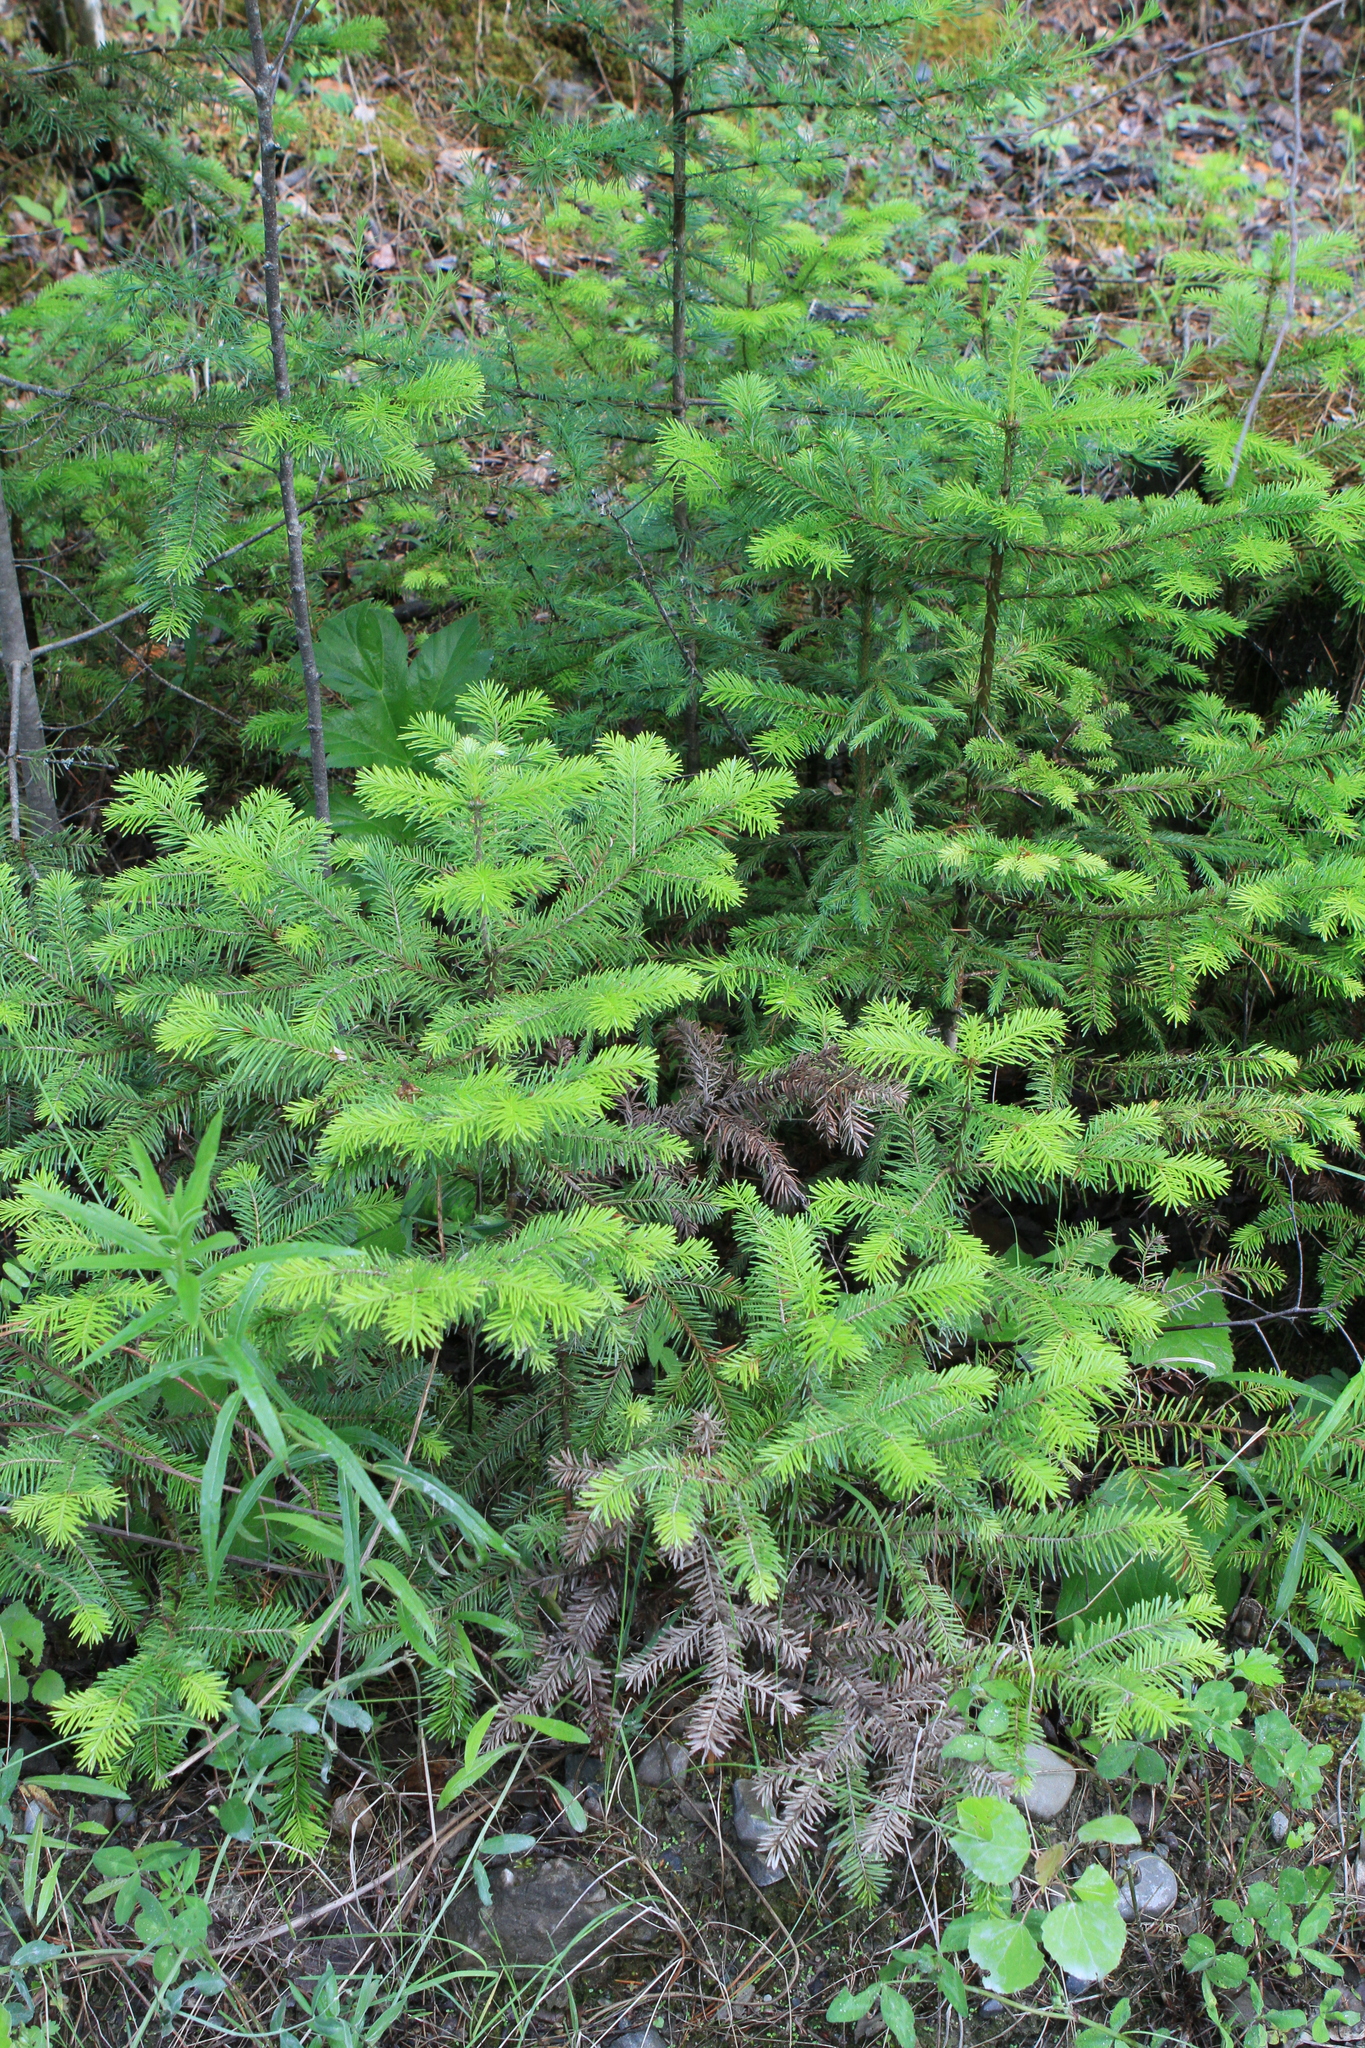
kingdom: Plantae
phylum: Tracheophyta
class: Pinopsida
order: Pinales
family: Pinaceae
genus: Abies
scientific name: Abies sibirica
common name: Siberian fir
